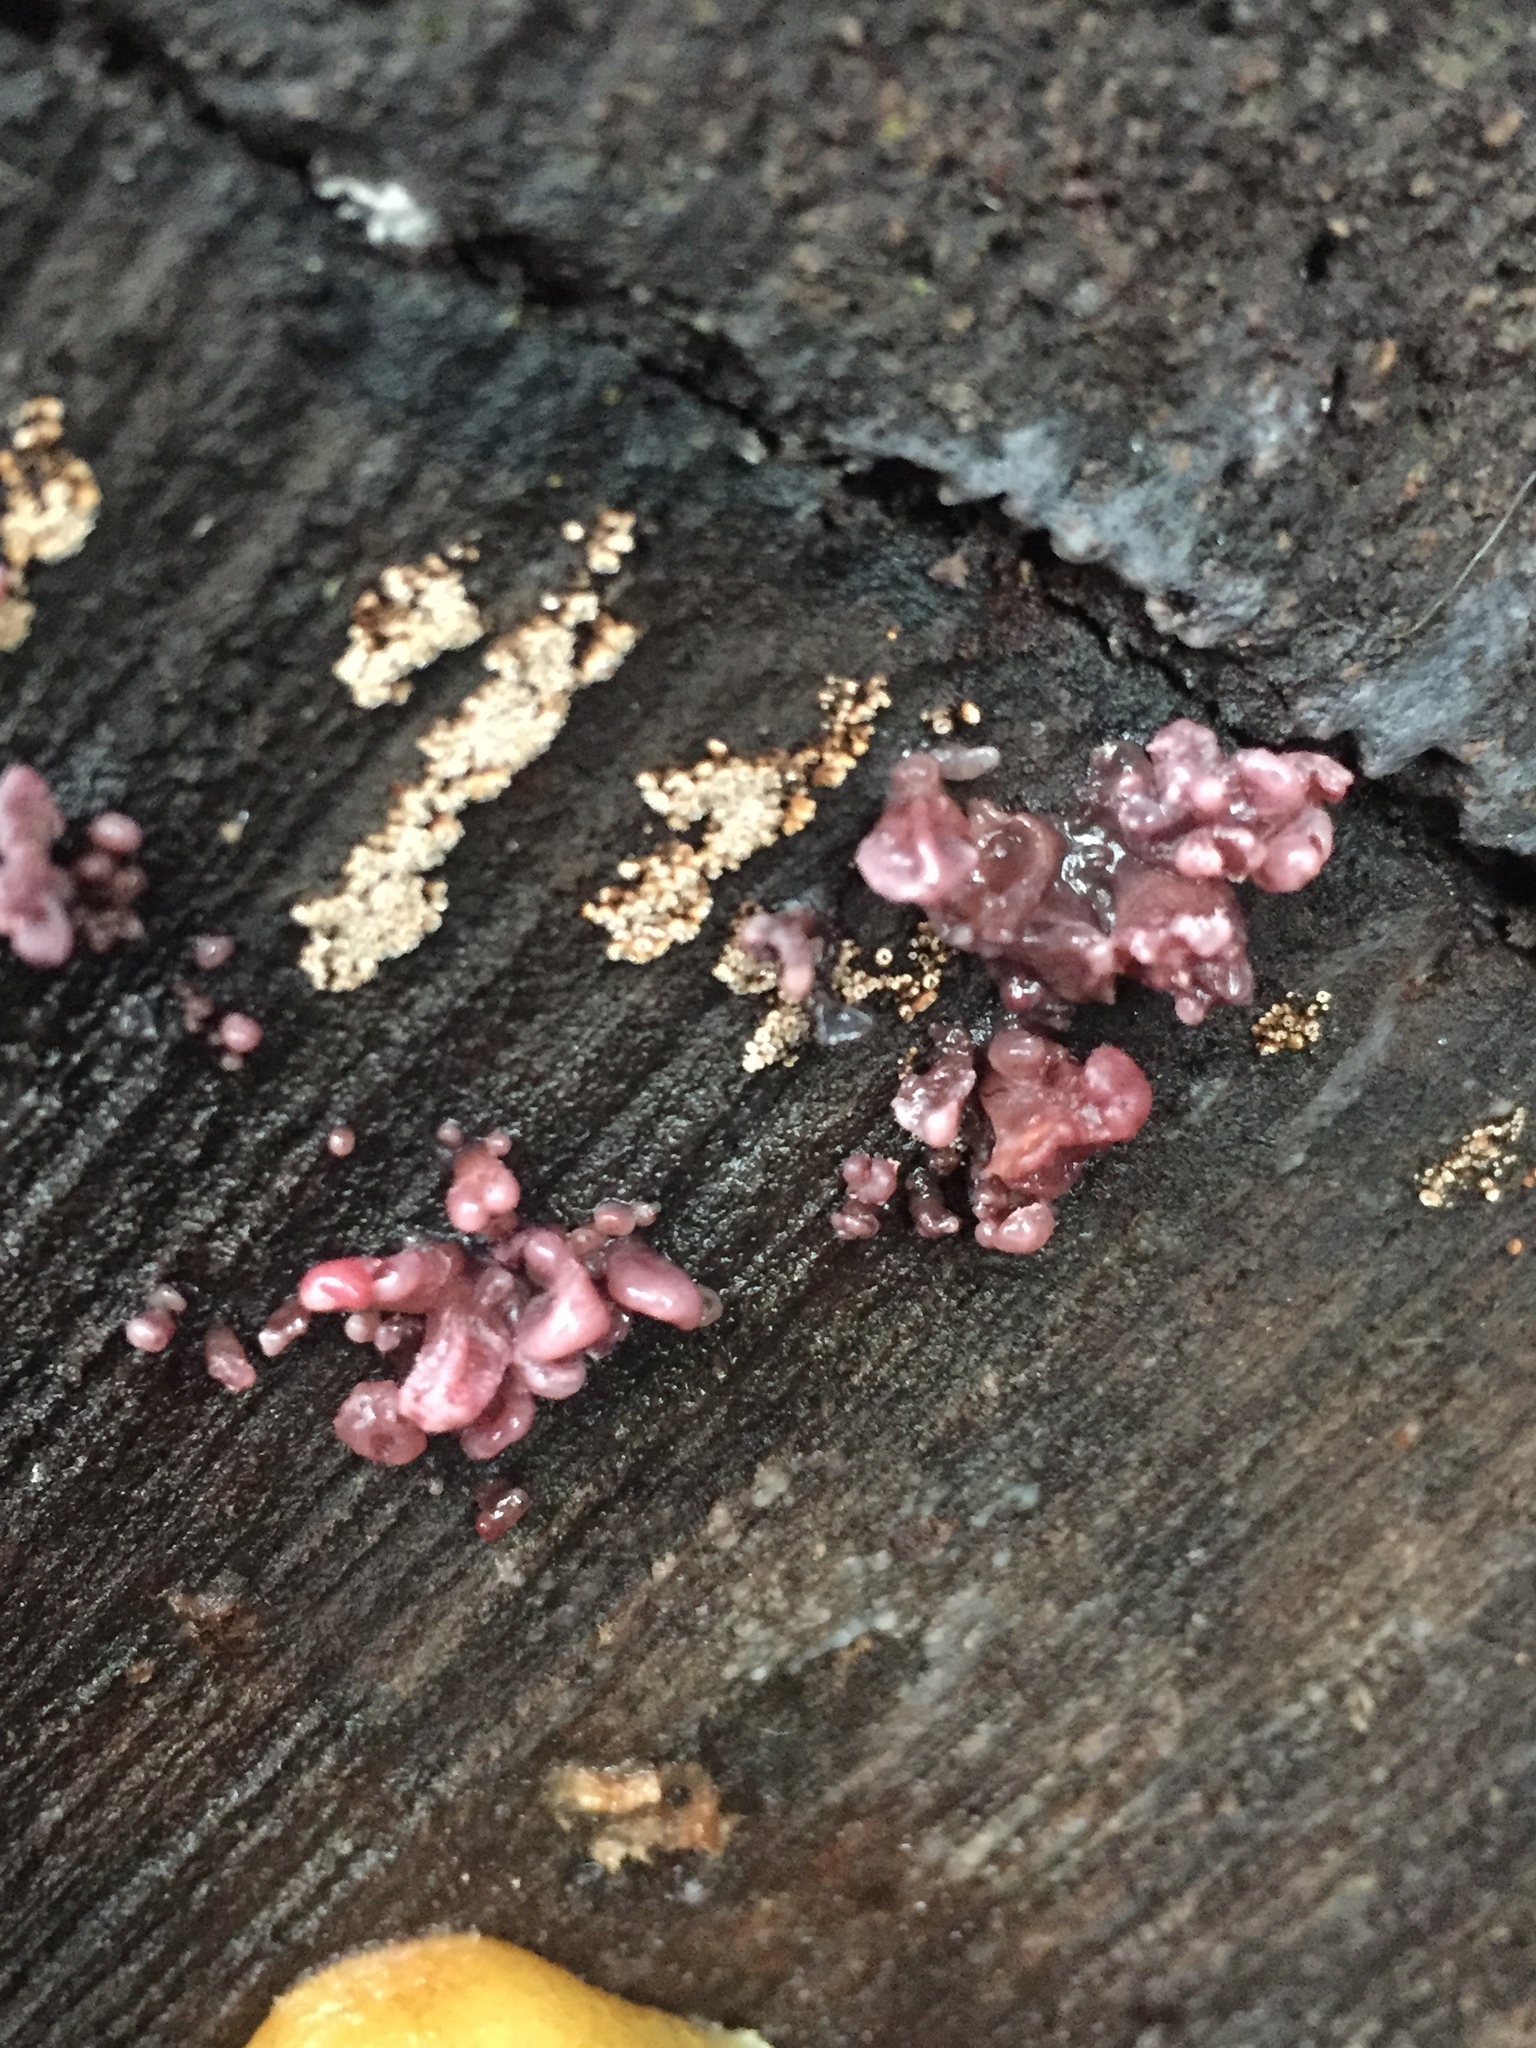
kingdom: Fungi
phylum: Ascomycota
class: Leotiomycetes
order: Helotiales
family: Gelatinodiscaceae
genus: Ascocoryne
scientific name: Ascocoryne sarcoides
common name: Purple jellydisc
